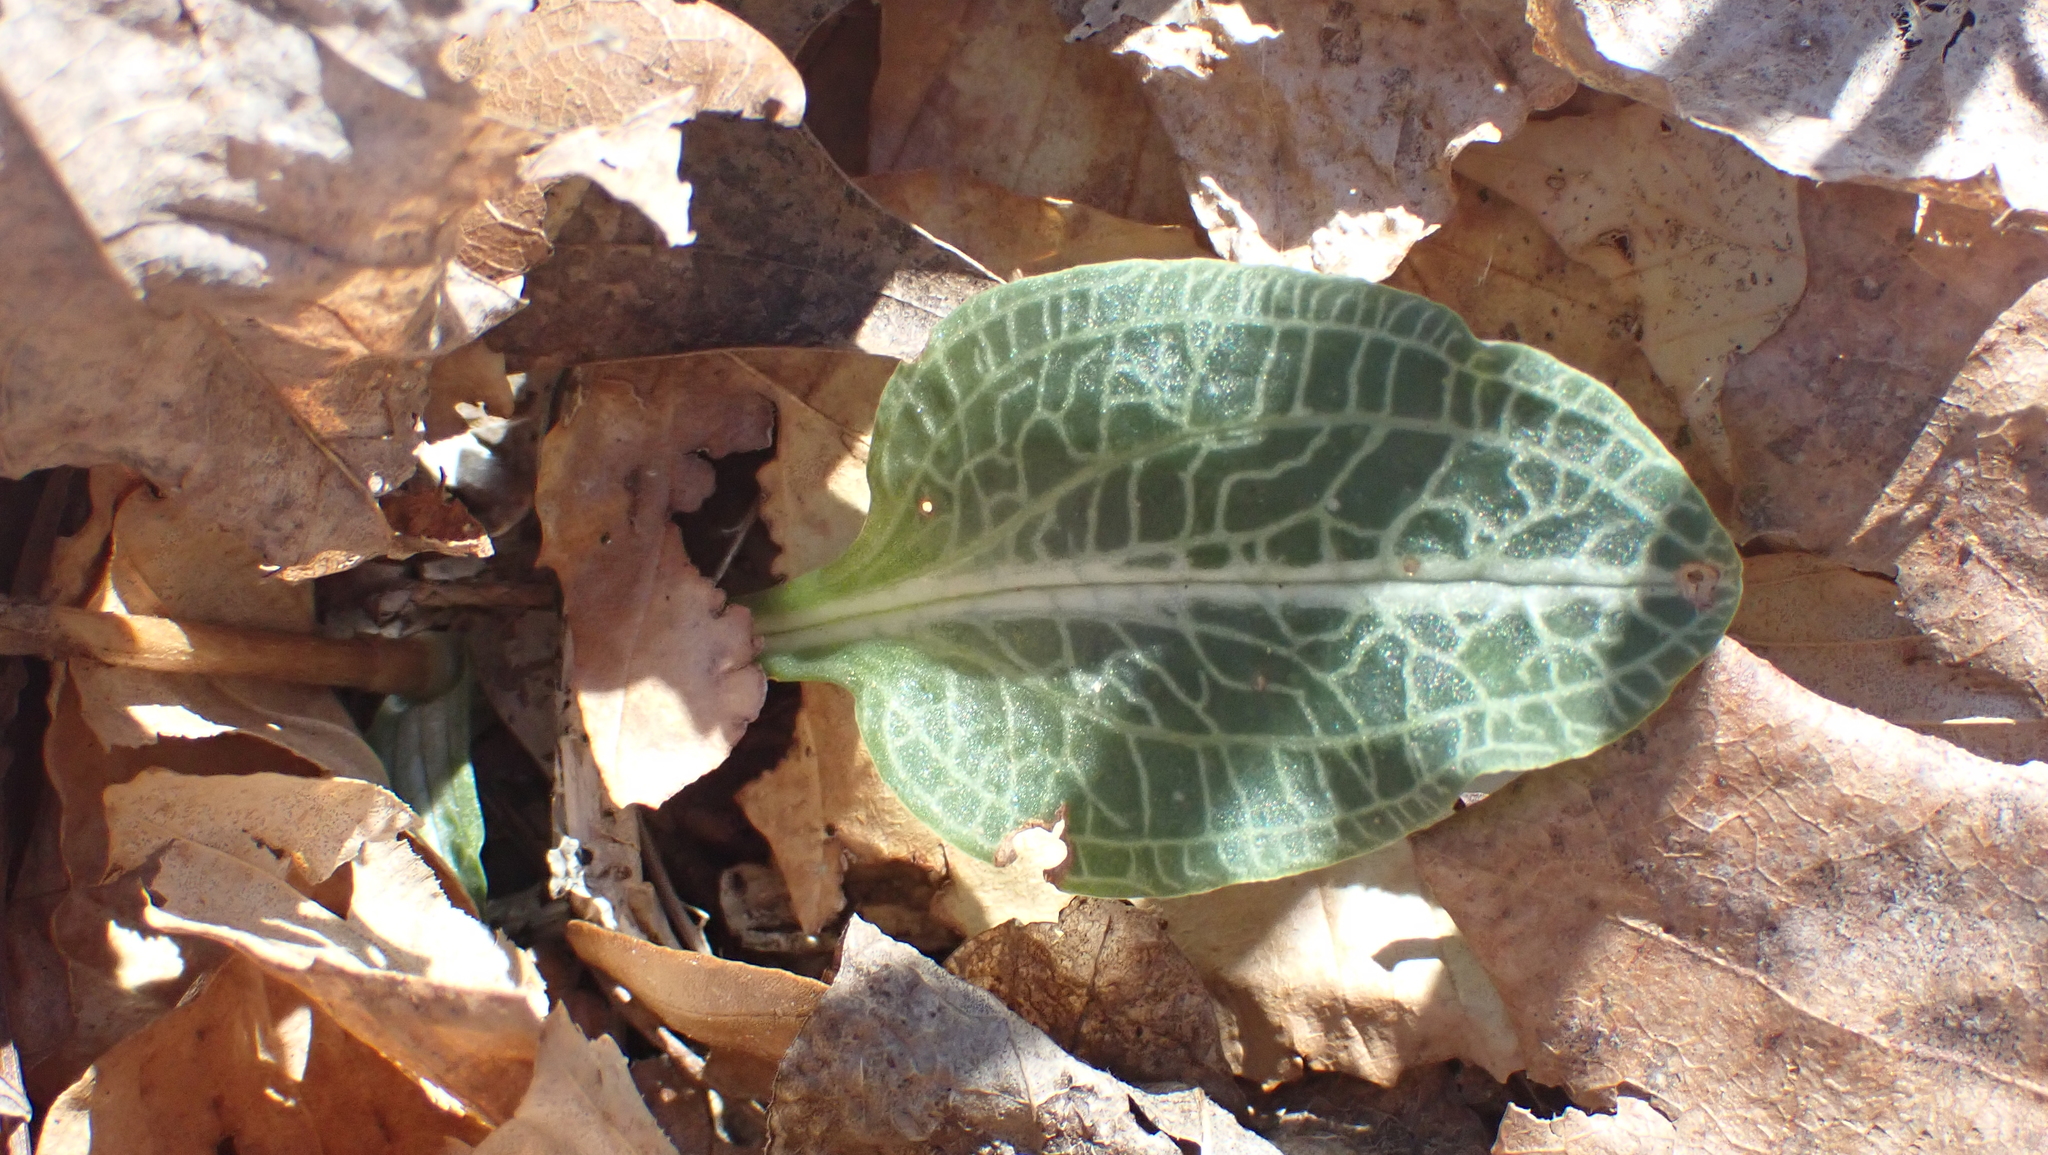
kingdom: Plantae
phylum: Tracheophyta
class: Liliopsida
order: Asparagales
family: Orchidaceae
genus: Goodyera
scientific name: Goodyera pubescens
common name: Downy rattlesnake-plantain
